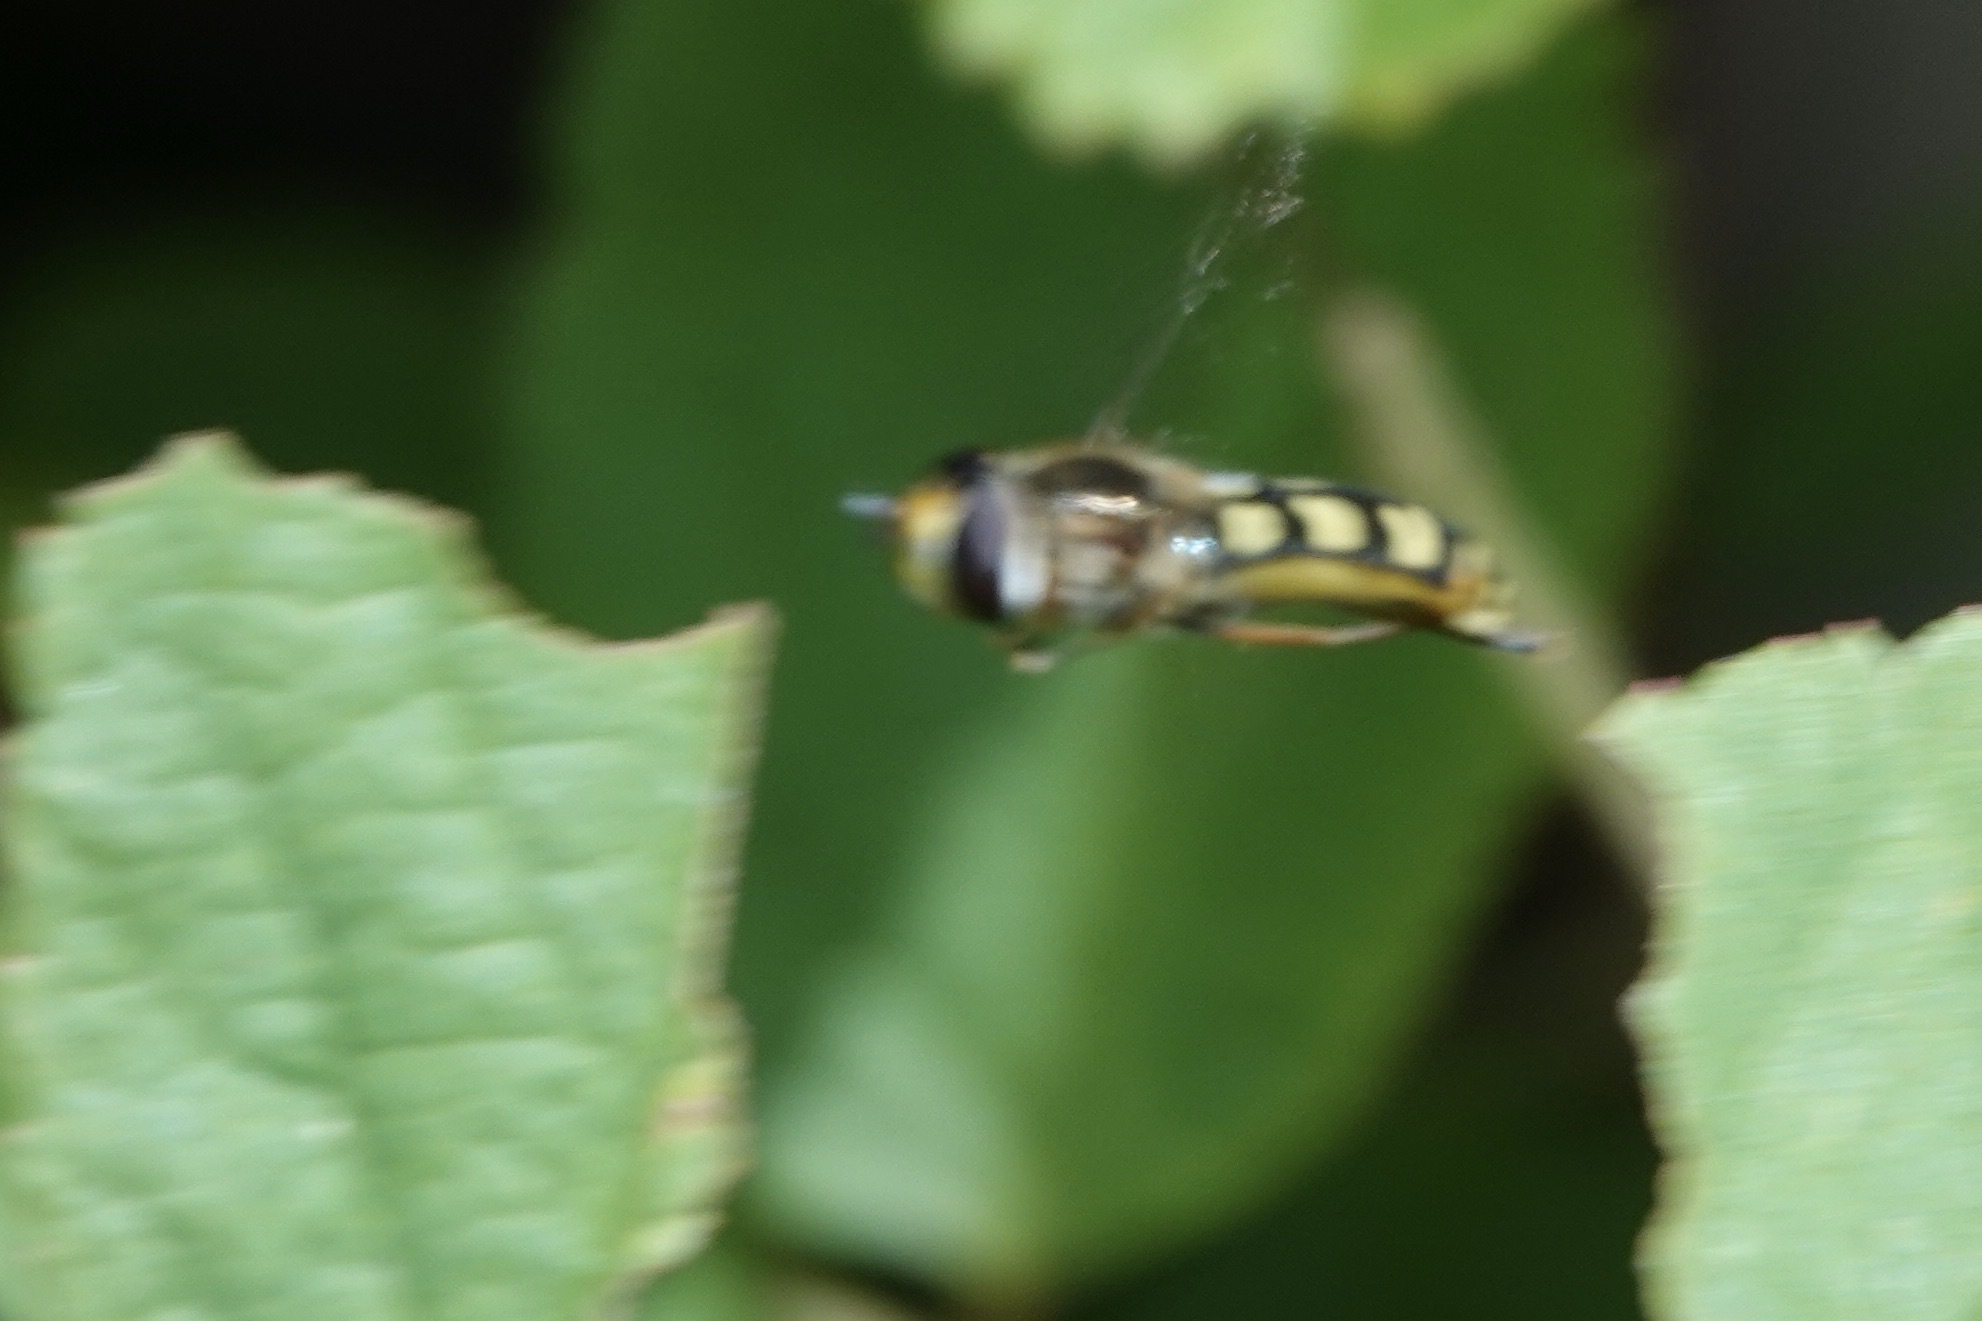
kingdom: Animalia
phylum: Arthropoda
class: Insecta
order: Diptera
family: Syrphidae
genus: Eupeodes
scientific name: Eupeodes
